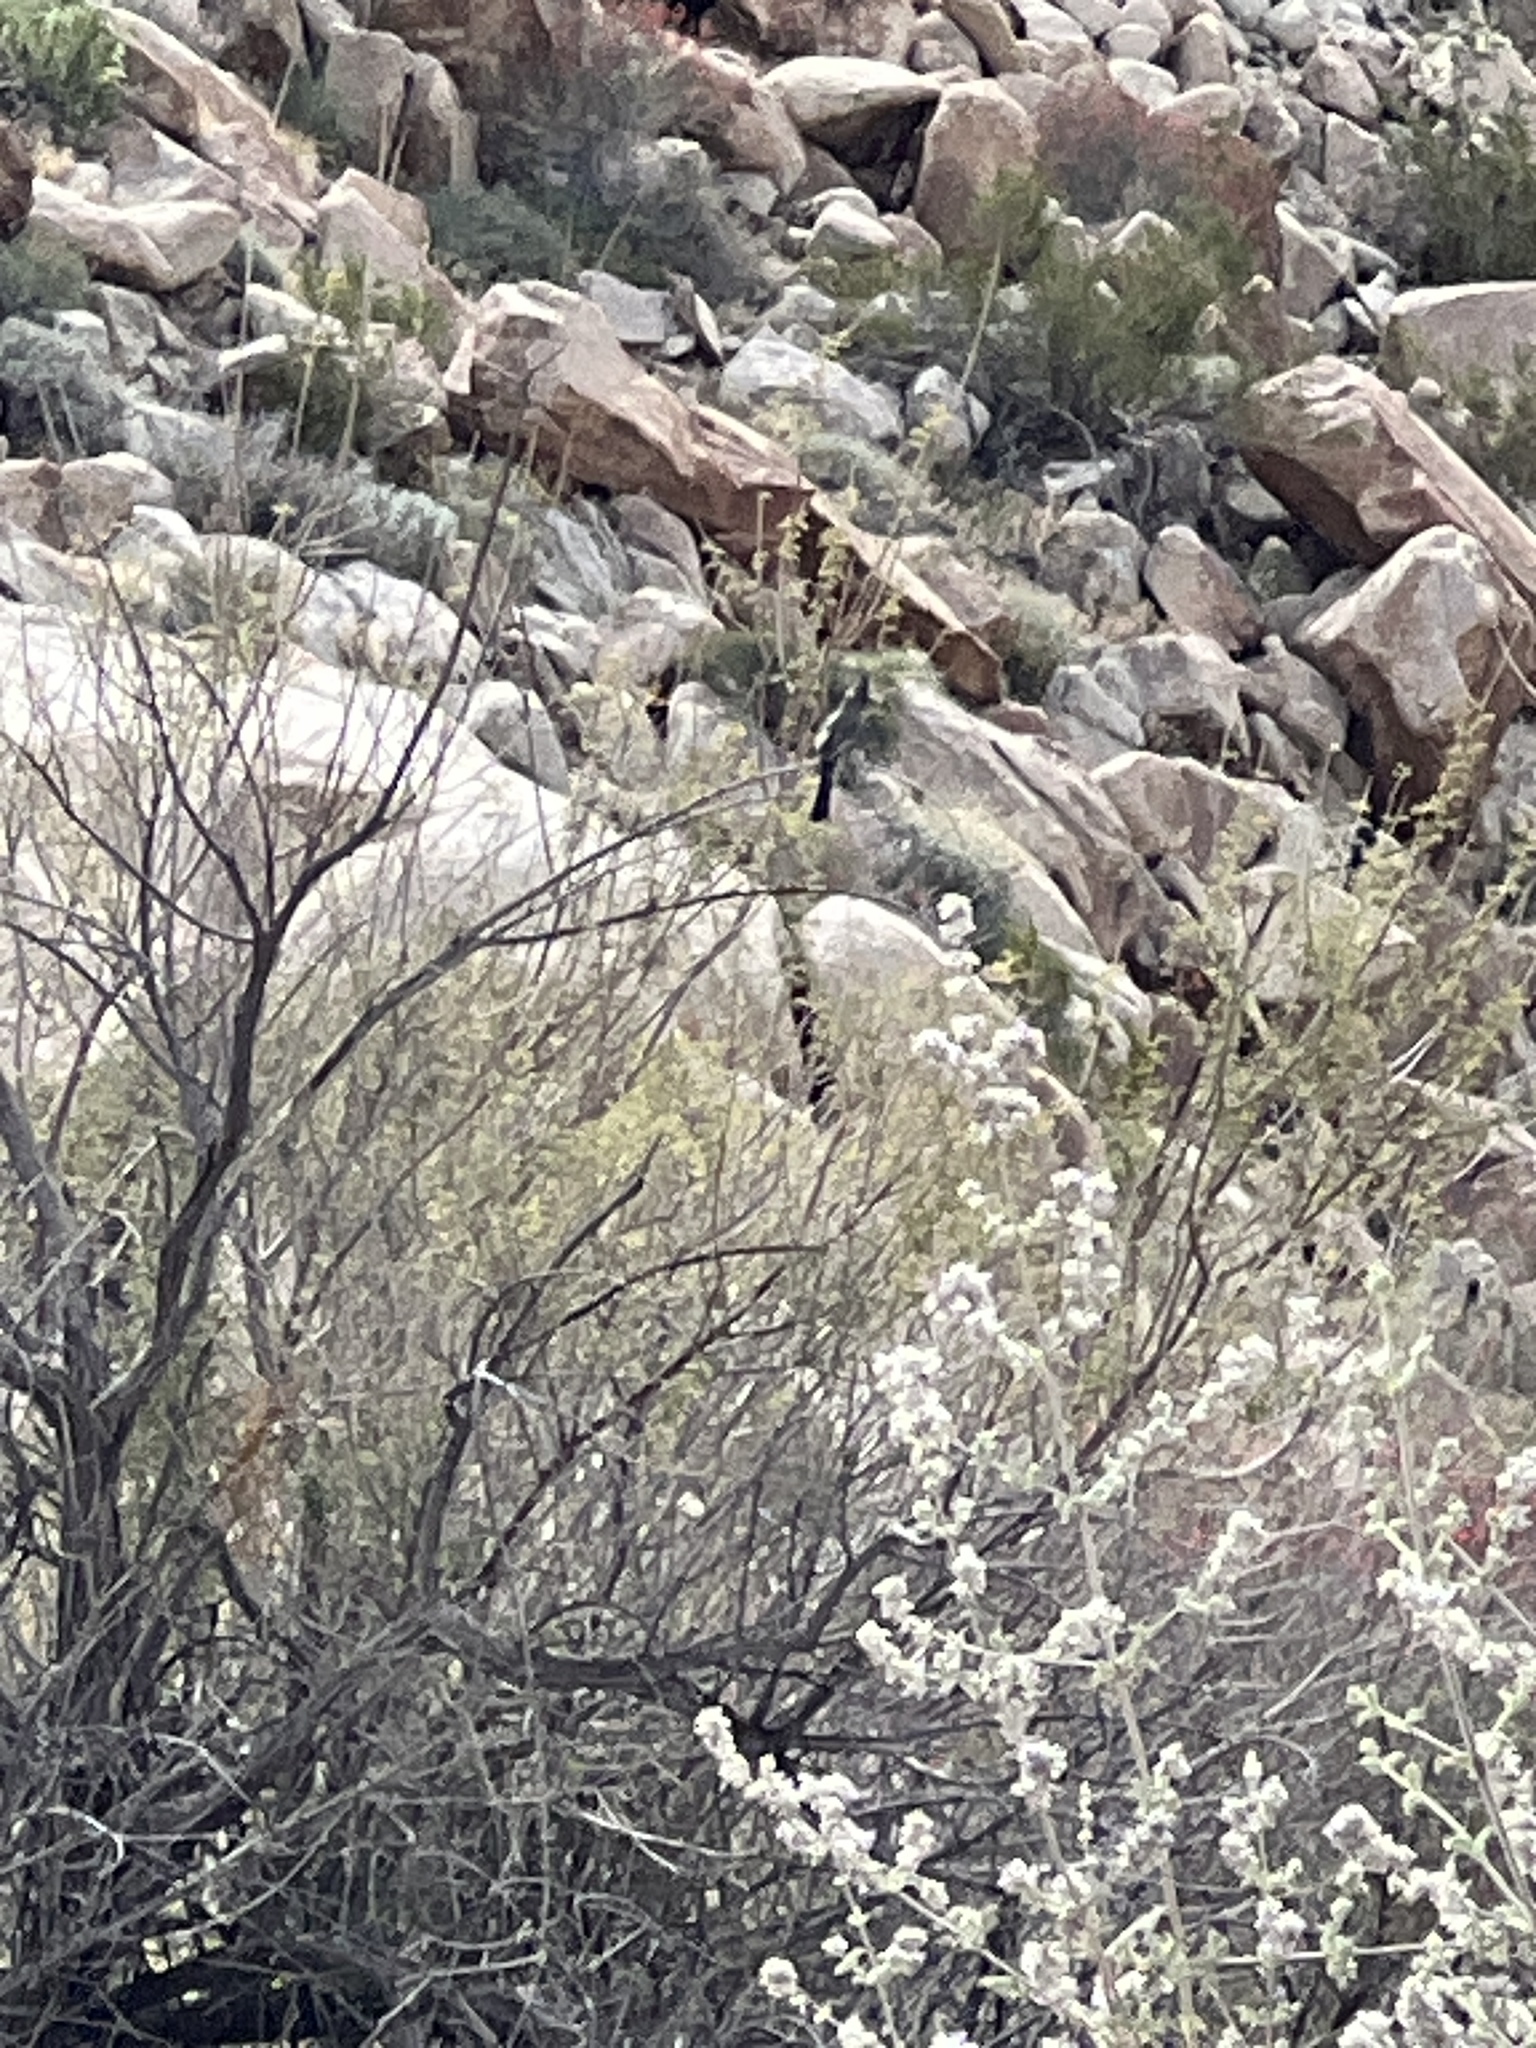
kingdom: Animalia
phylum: Chordata
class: Aves
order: Passeriformes
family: Ptilogonatidae
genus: Phainopepla
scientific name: Phainopepla nitens
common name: Phainopepla
